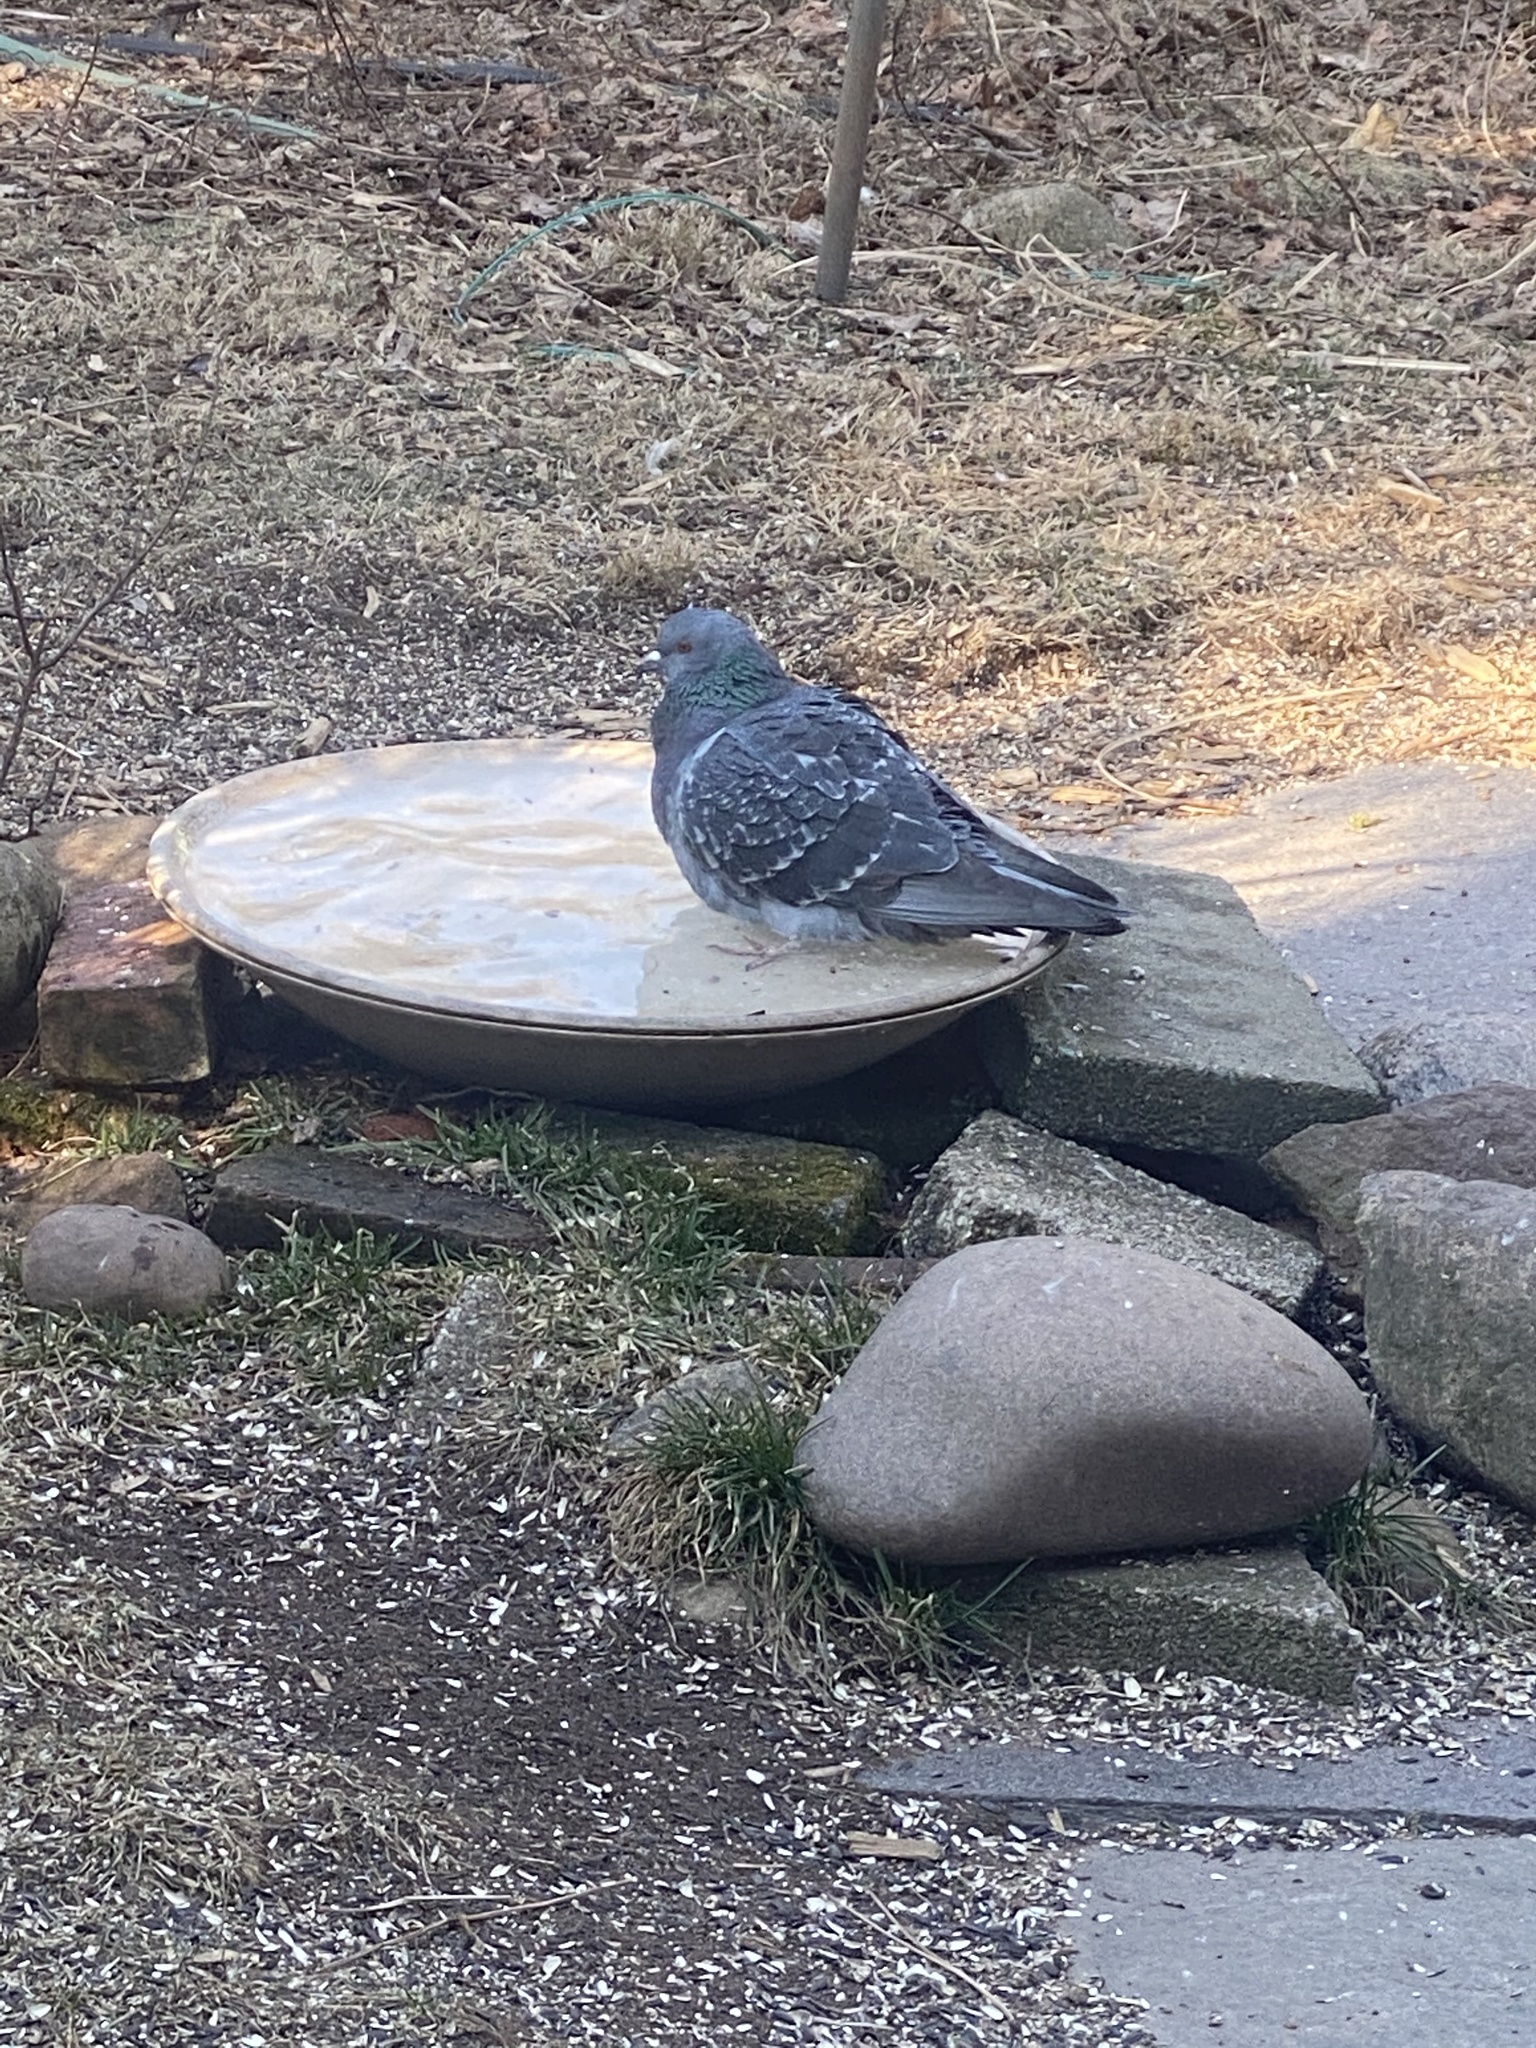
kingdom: Animalia
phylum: Chordata
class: Aves
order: Columbiformes
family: Columbidae
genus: Columba
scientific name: Columba livia
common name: Rock pigeon
